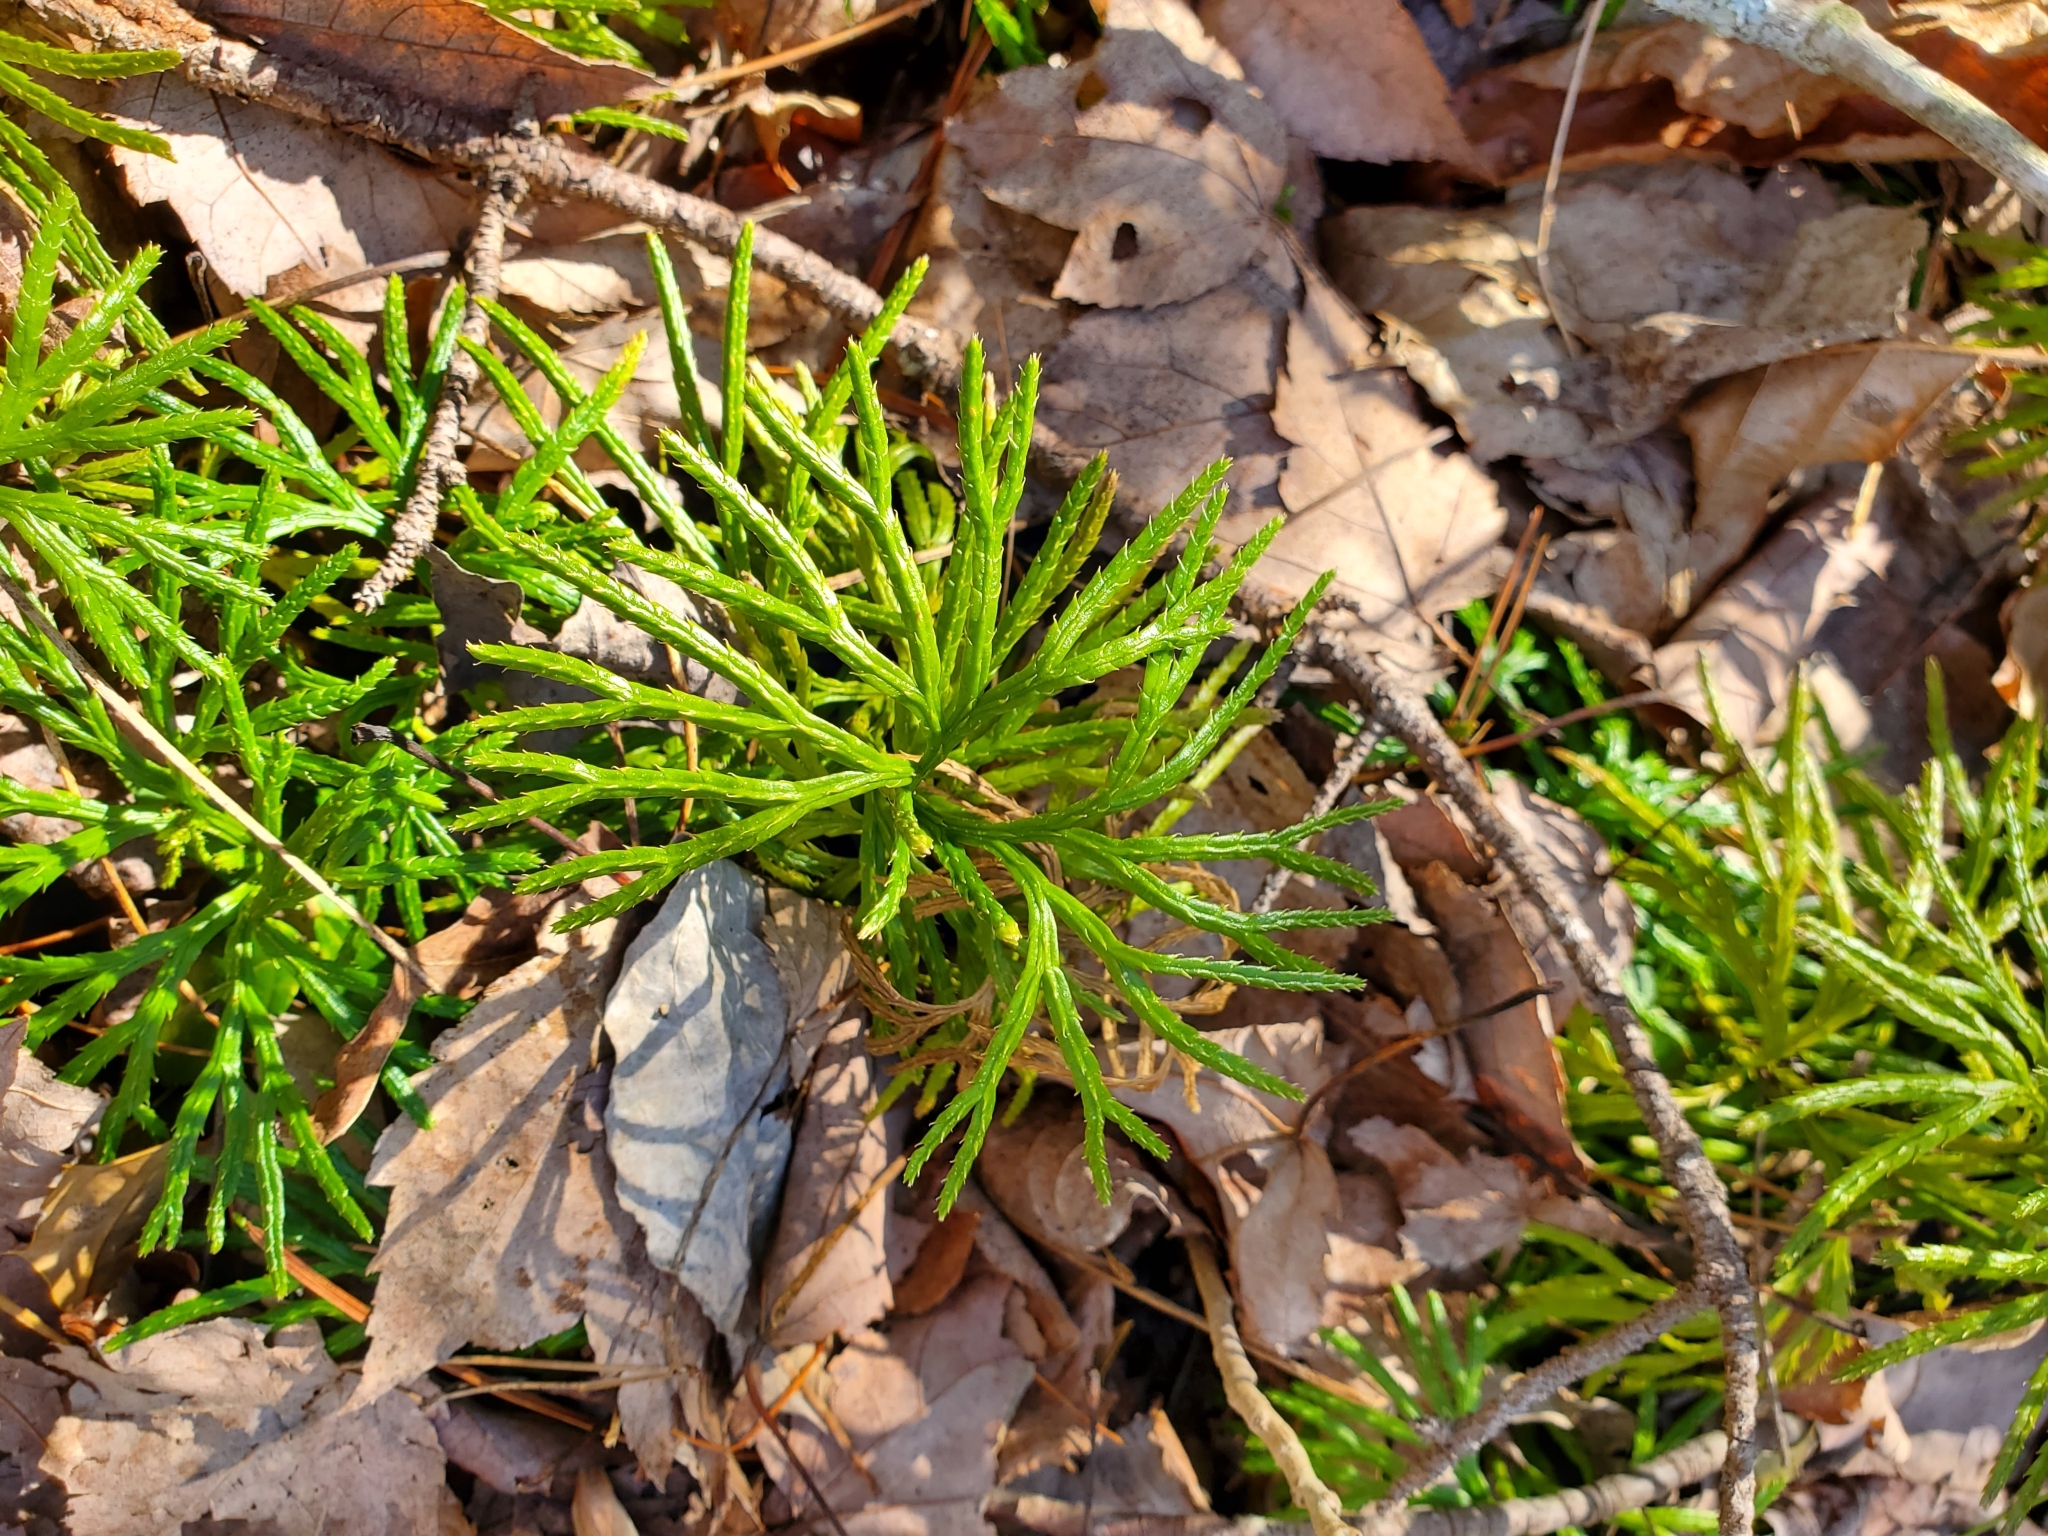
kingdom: Plantae
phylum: Tracheophyta
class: Lycopodiopsida
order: Lycopodiales
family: Lycopodiaceae
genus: Diphasiastrum
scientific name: Diphasiastrum digitatum
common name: Southern running-pine
